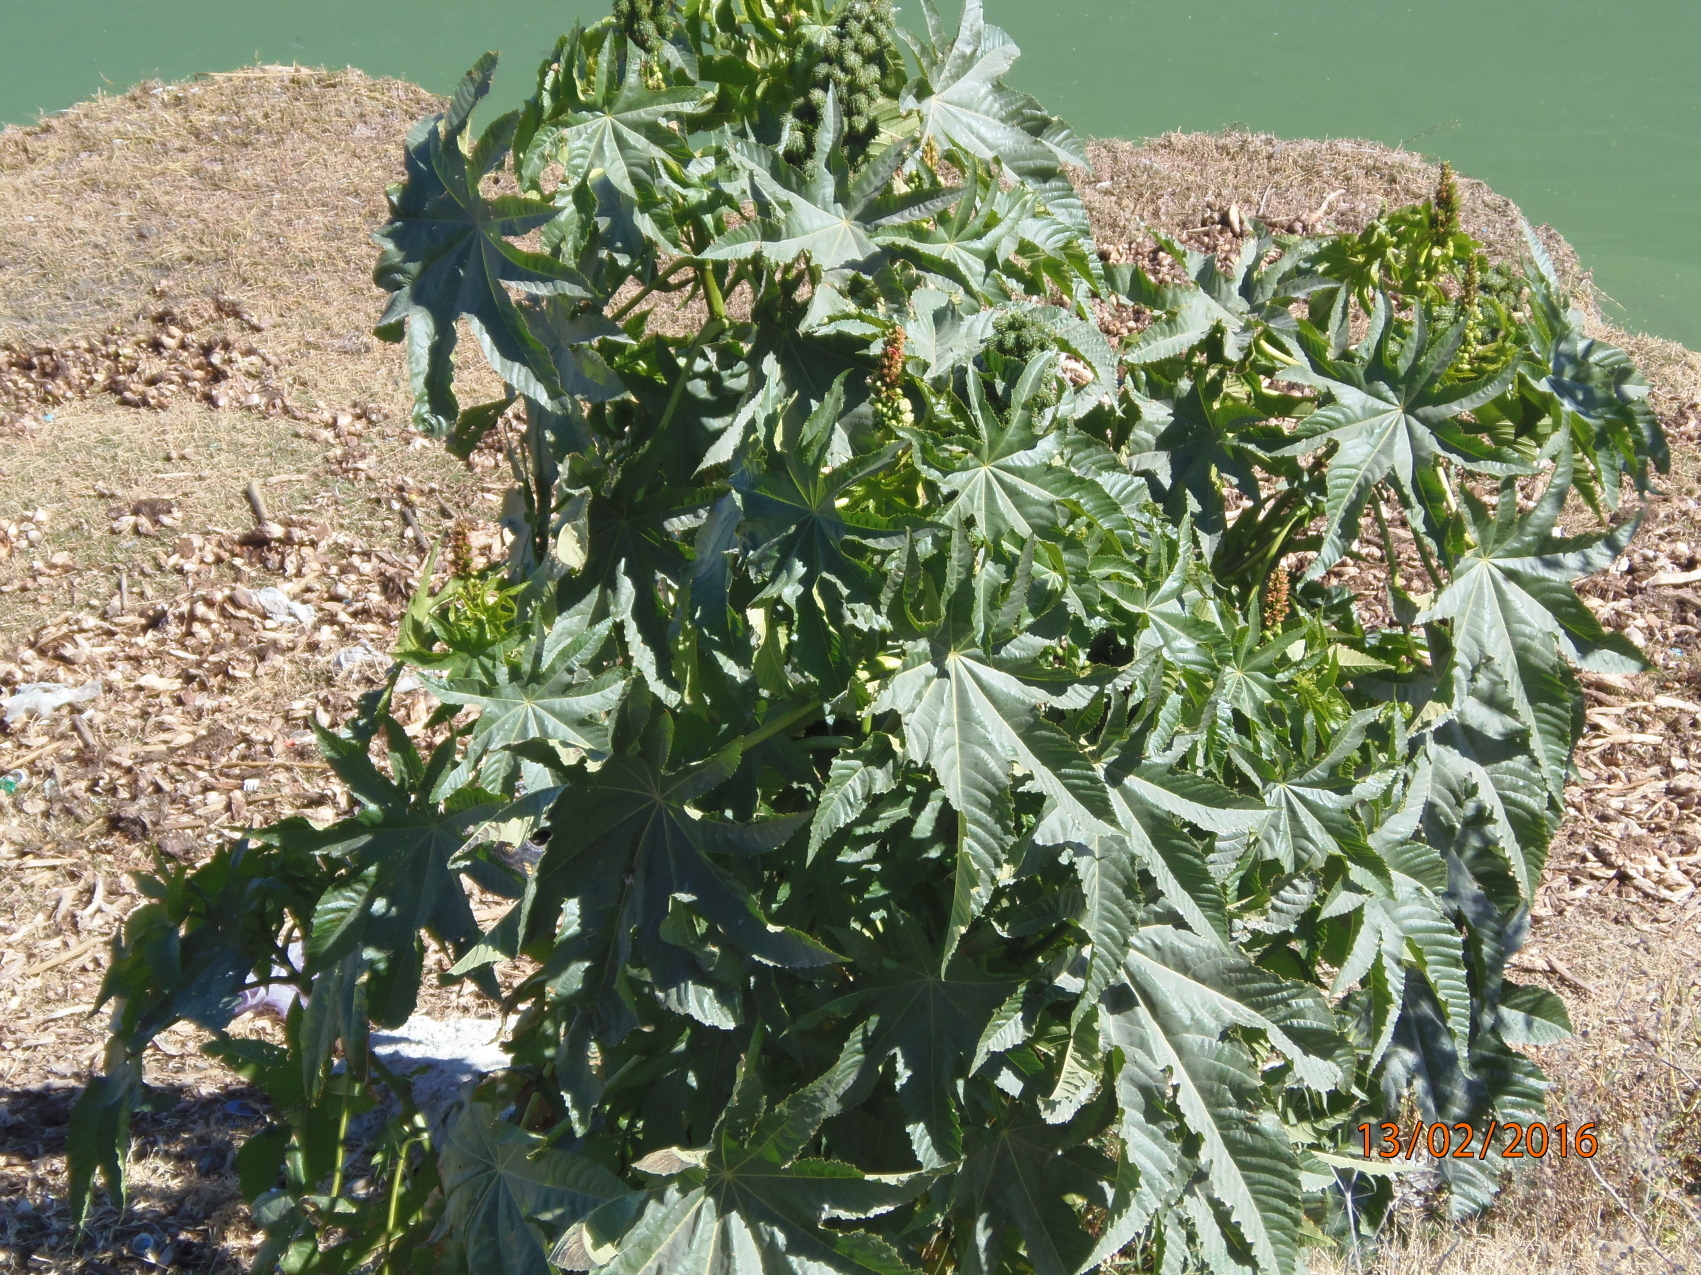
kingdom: Plantae
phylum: Tracheophyta
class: Magnoliopsida
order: Malpighiales
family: Euphorbiaceae
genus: Ricinus
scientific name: Ricinus communis
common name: Castor-oil-plant
